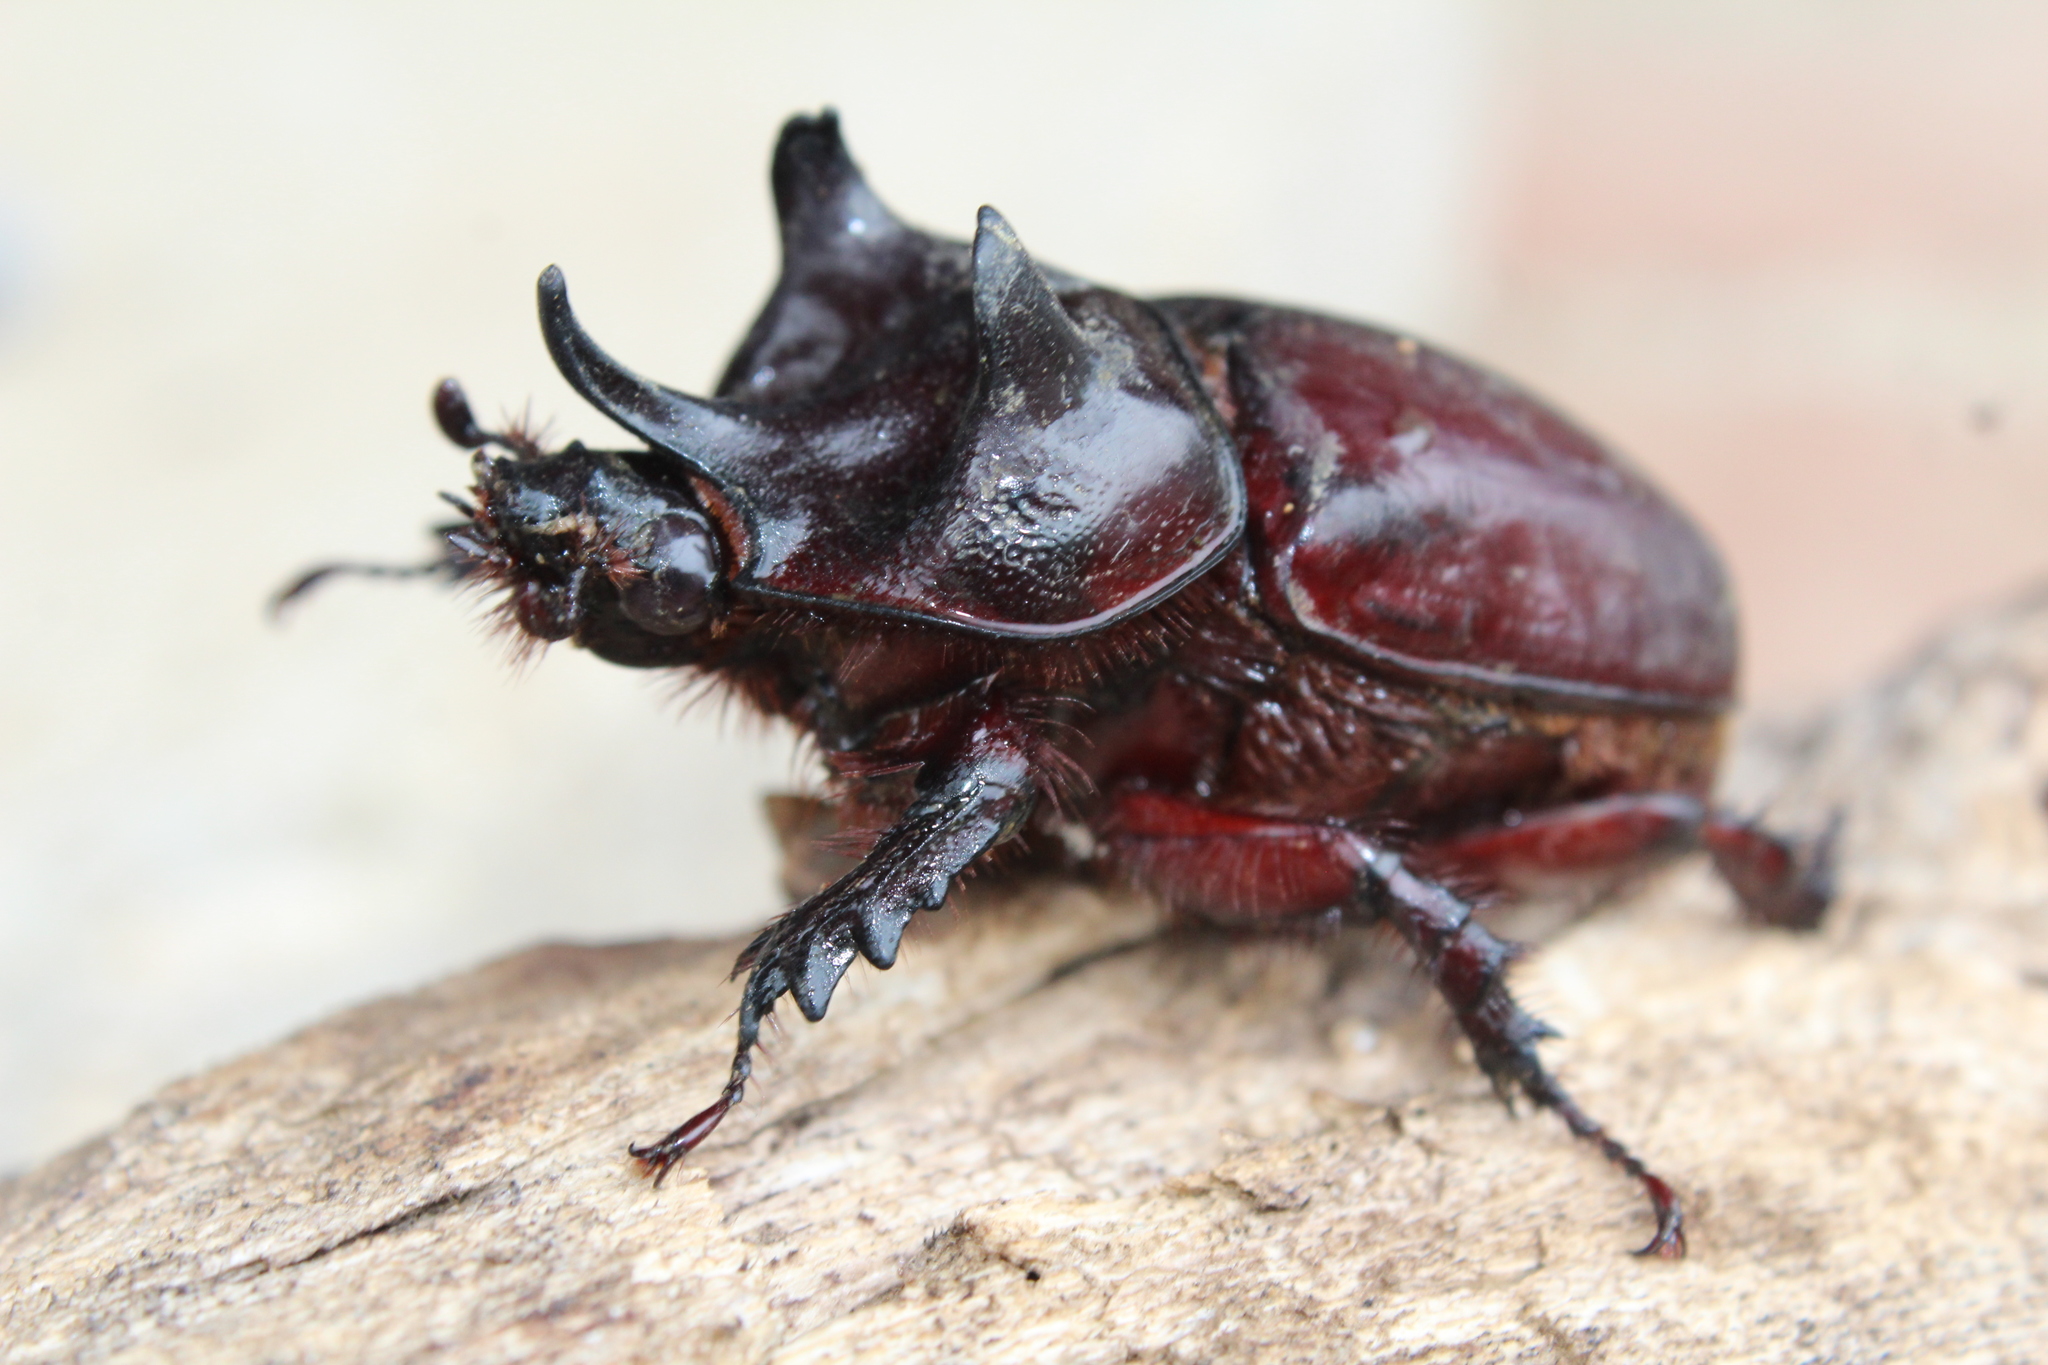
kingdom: Animalia
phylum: Arthropoda
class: Insecta
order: Coleoptera
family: Scarabaeidae
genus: Strategus
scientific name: Strategus aloeus
